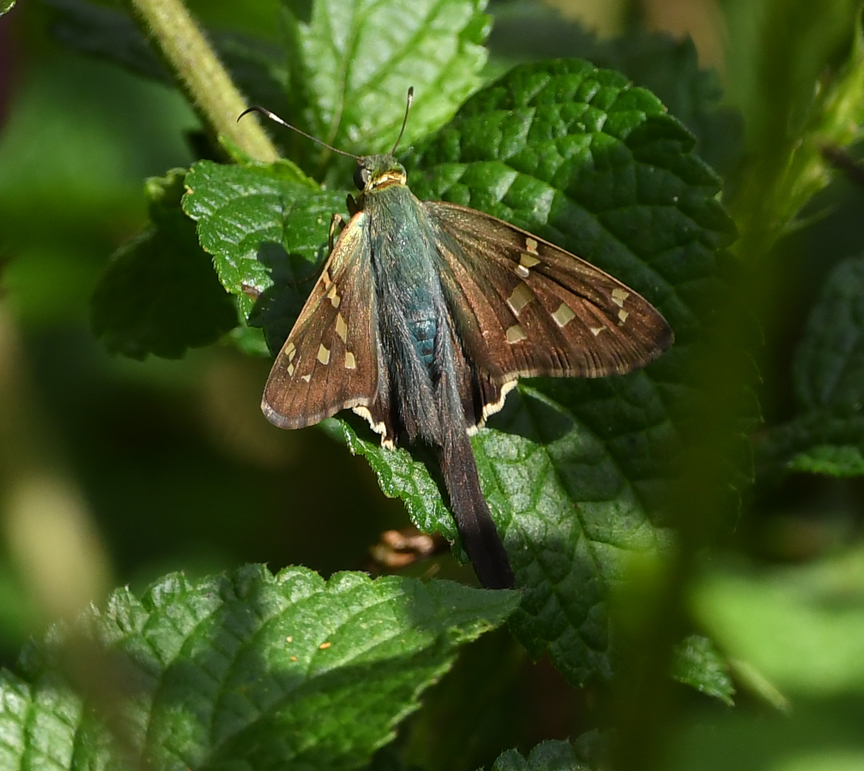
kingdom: Animalia
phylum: Arthropoda
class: Insecta
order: Lepidoptera
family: Hesperiidae
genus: Urbanus
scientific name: Urbanus proteus
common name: Long-tailed skipper
